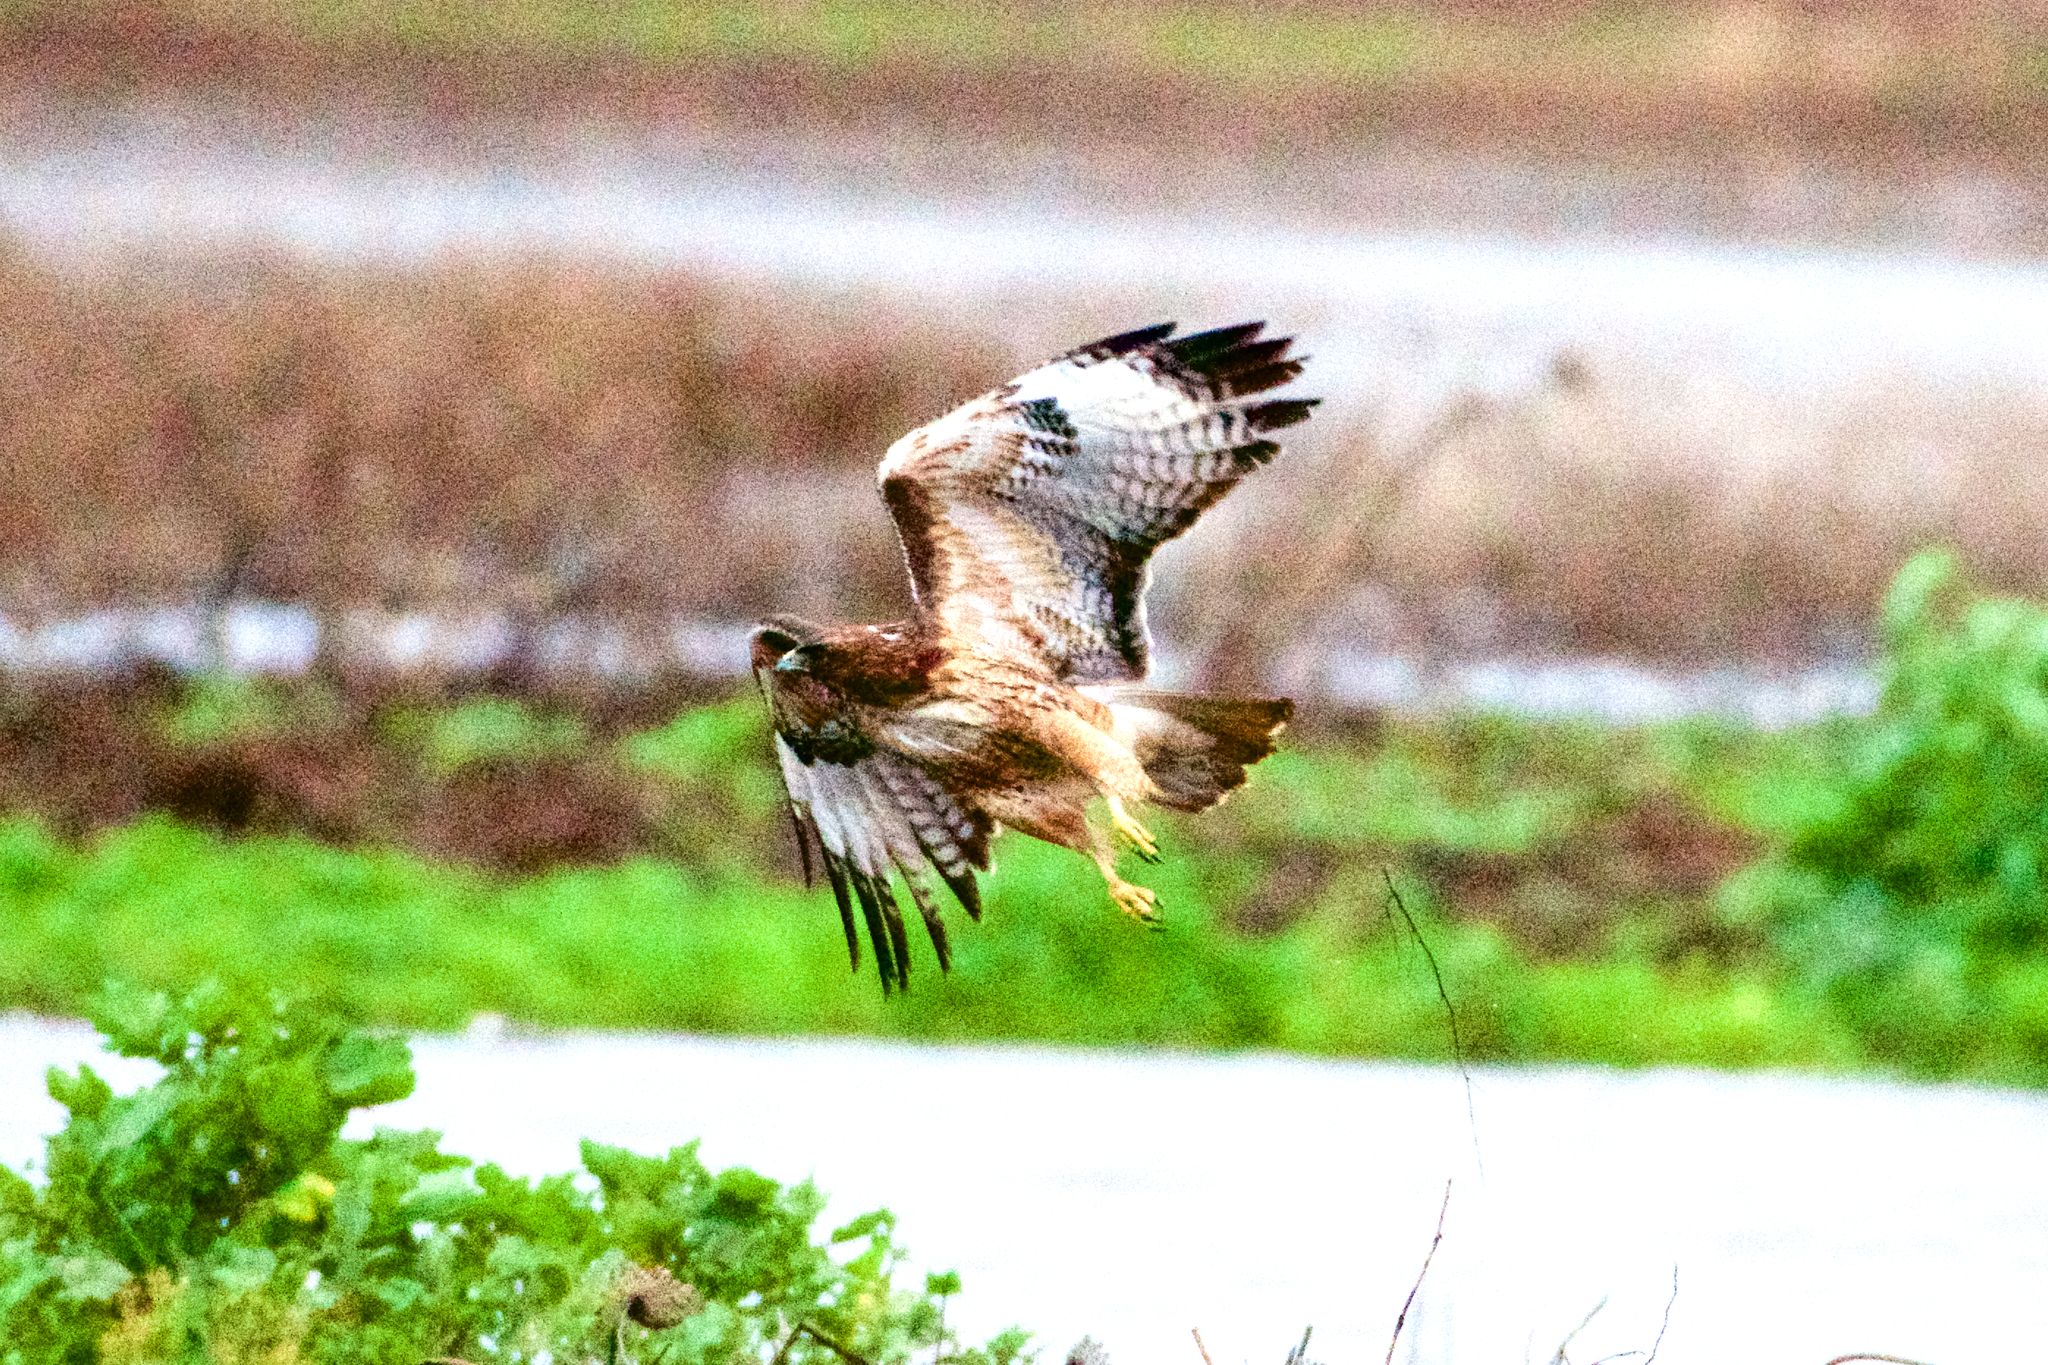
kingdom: Animalia
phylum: Chordata
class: Aves
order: Accipitriformes
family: Accipitridae
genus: Buteo
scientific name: Buteo jamaicensis
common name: Red-tailed hawk
